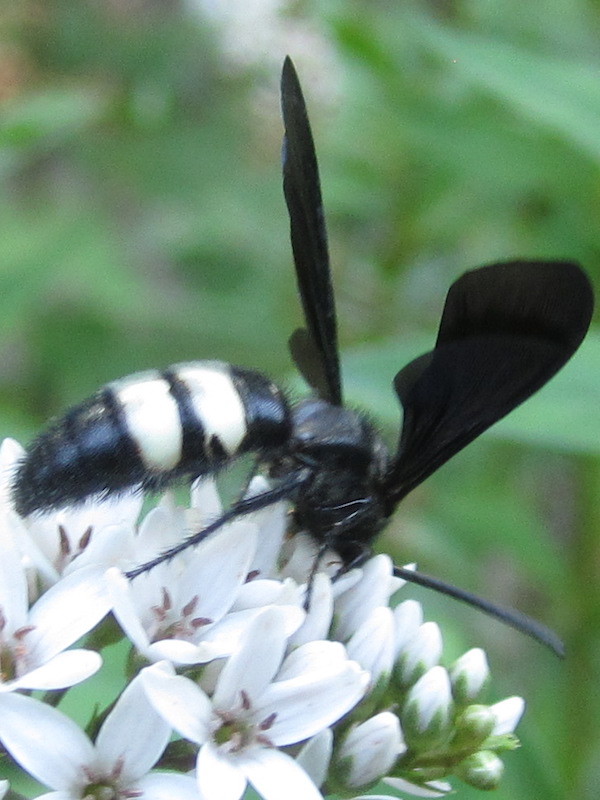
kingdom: Animalia
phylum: Arthropoda
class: Insecta
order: Hymenoptera
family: Scoliidae
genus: Scolia
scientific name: Scolia bicincta
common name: Double-banded scoliid wasp
